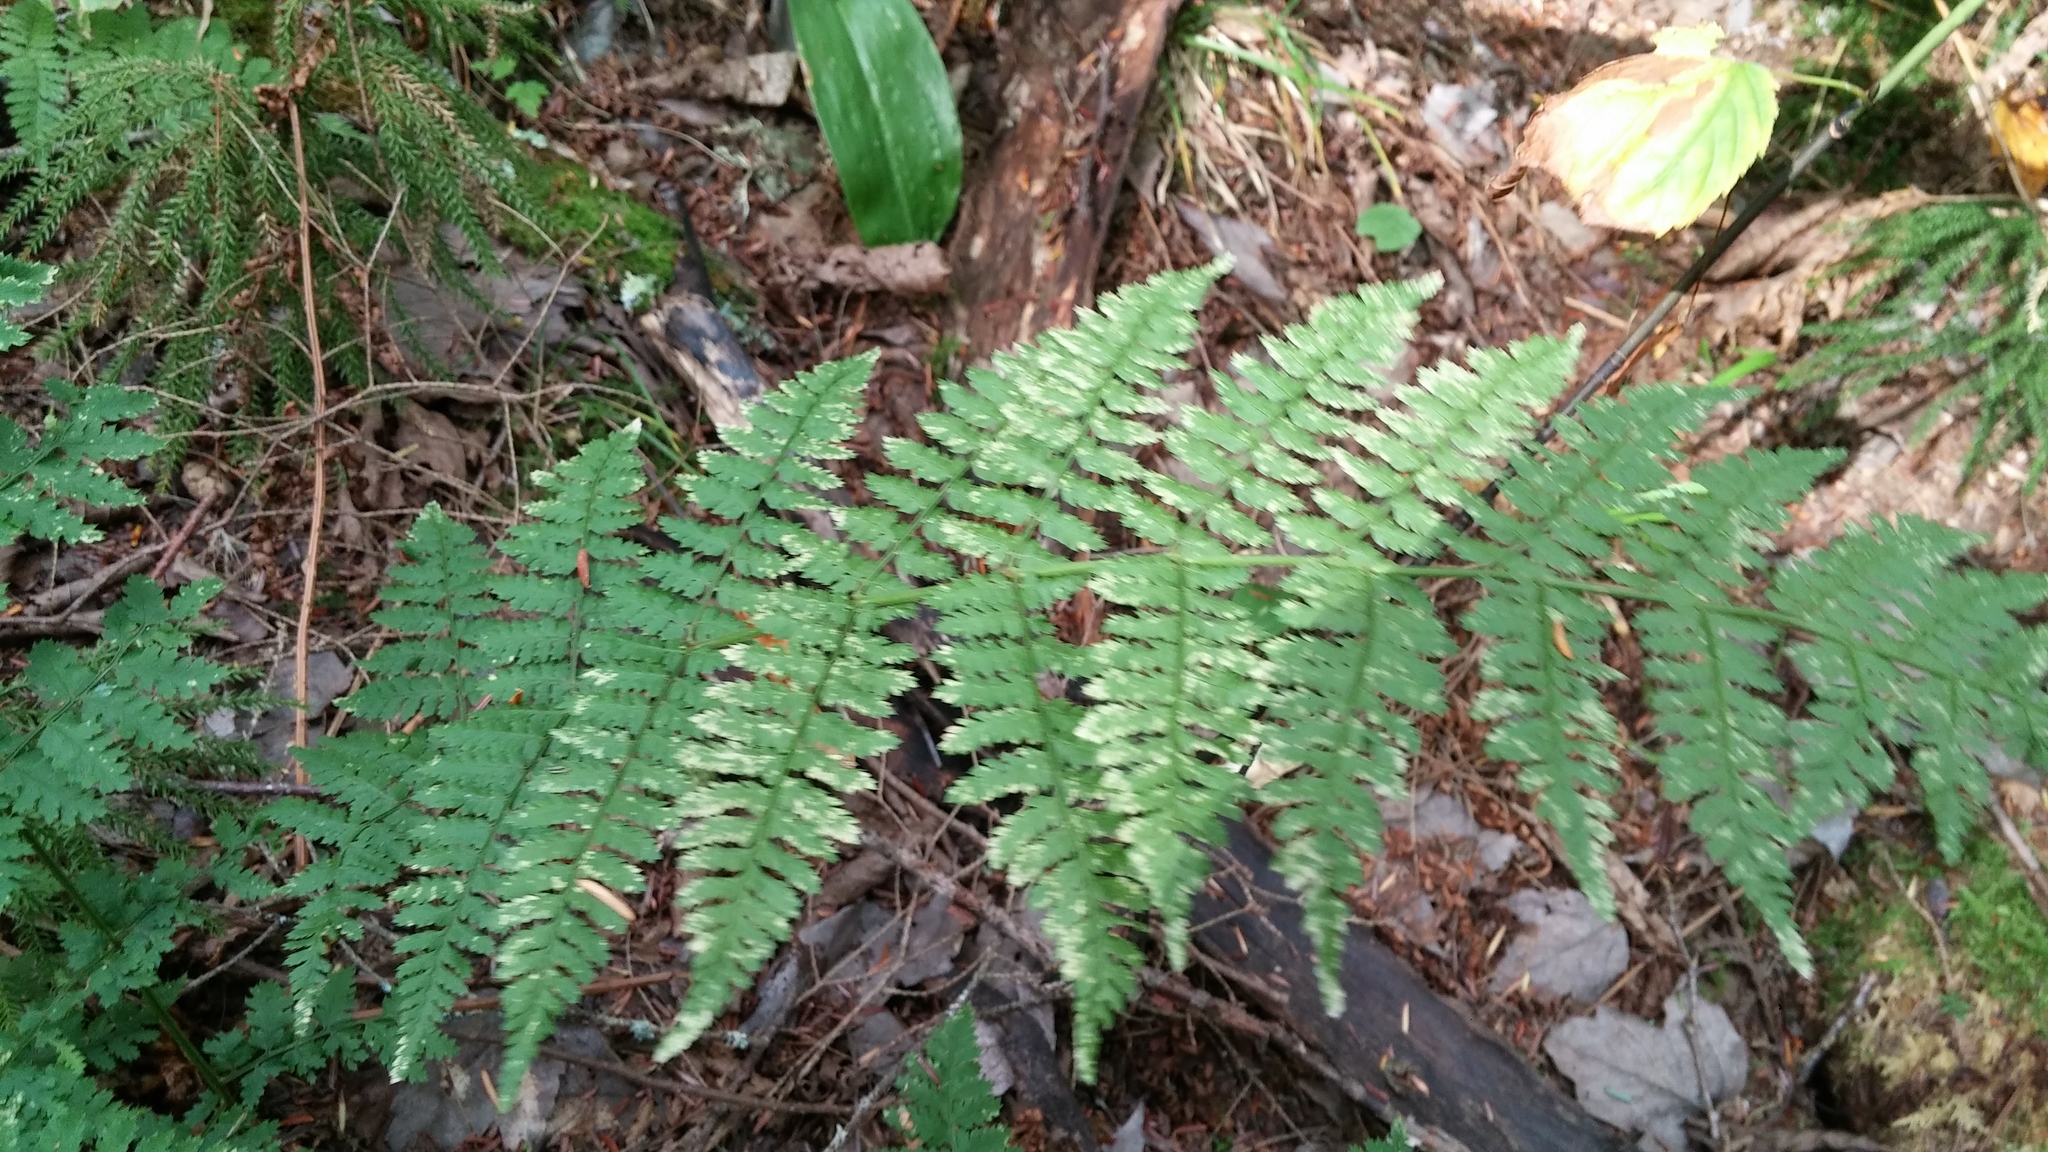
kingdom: Plantae
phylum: Tracheophyta
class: Polypodiopsida
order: Polypodiales
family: Dryopteridaceae
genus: Dryopteris
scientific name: Dryopteris intermedia
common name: Evergreen wood fern
